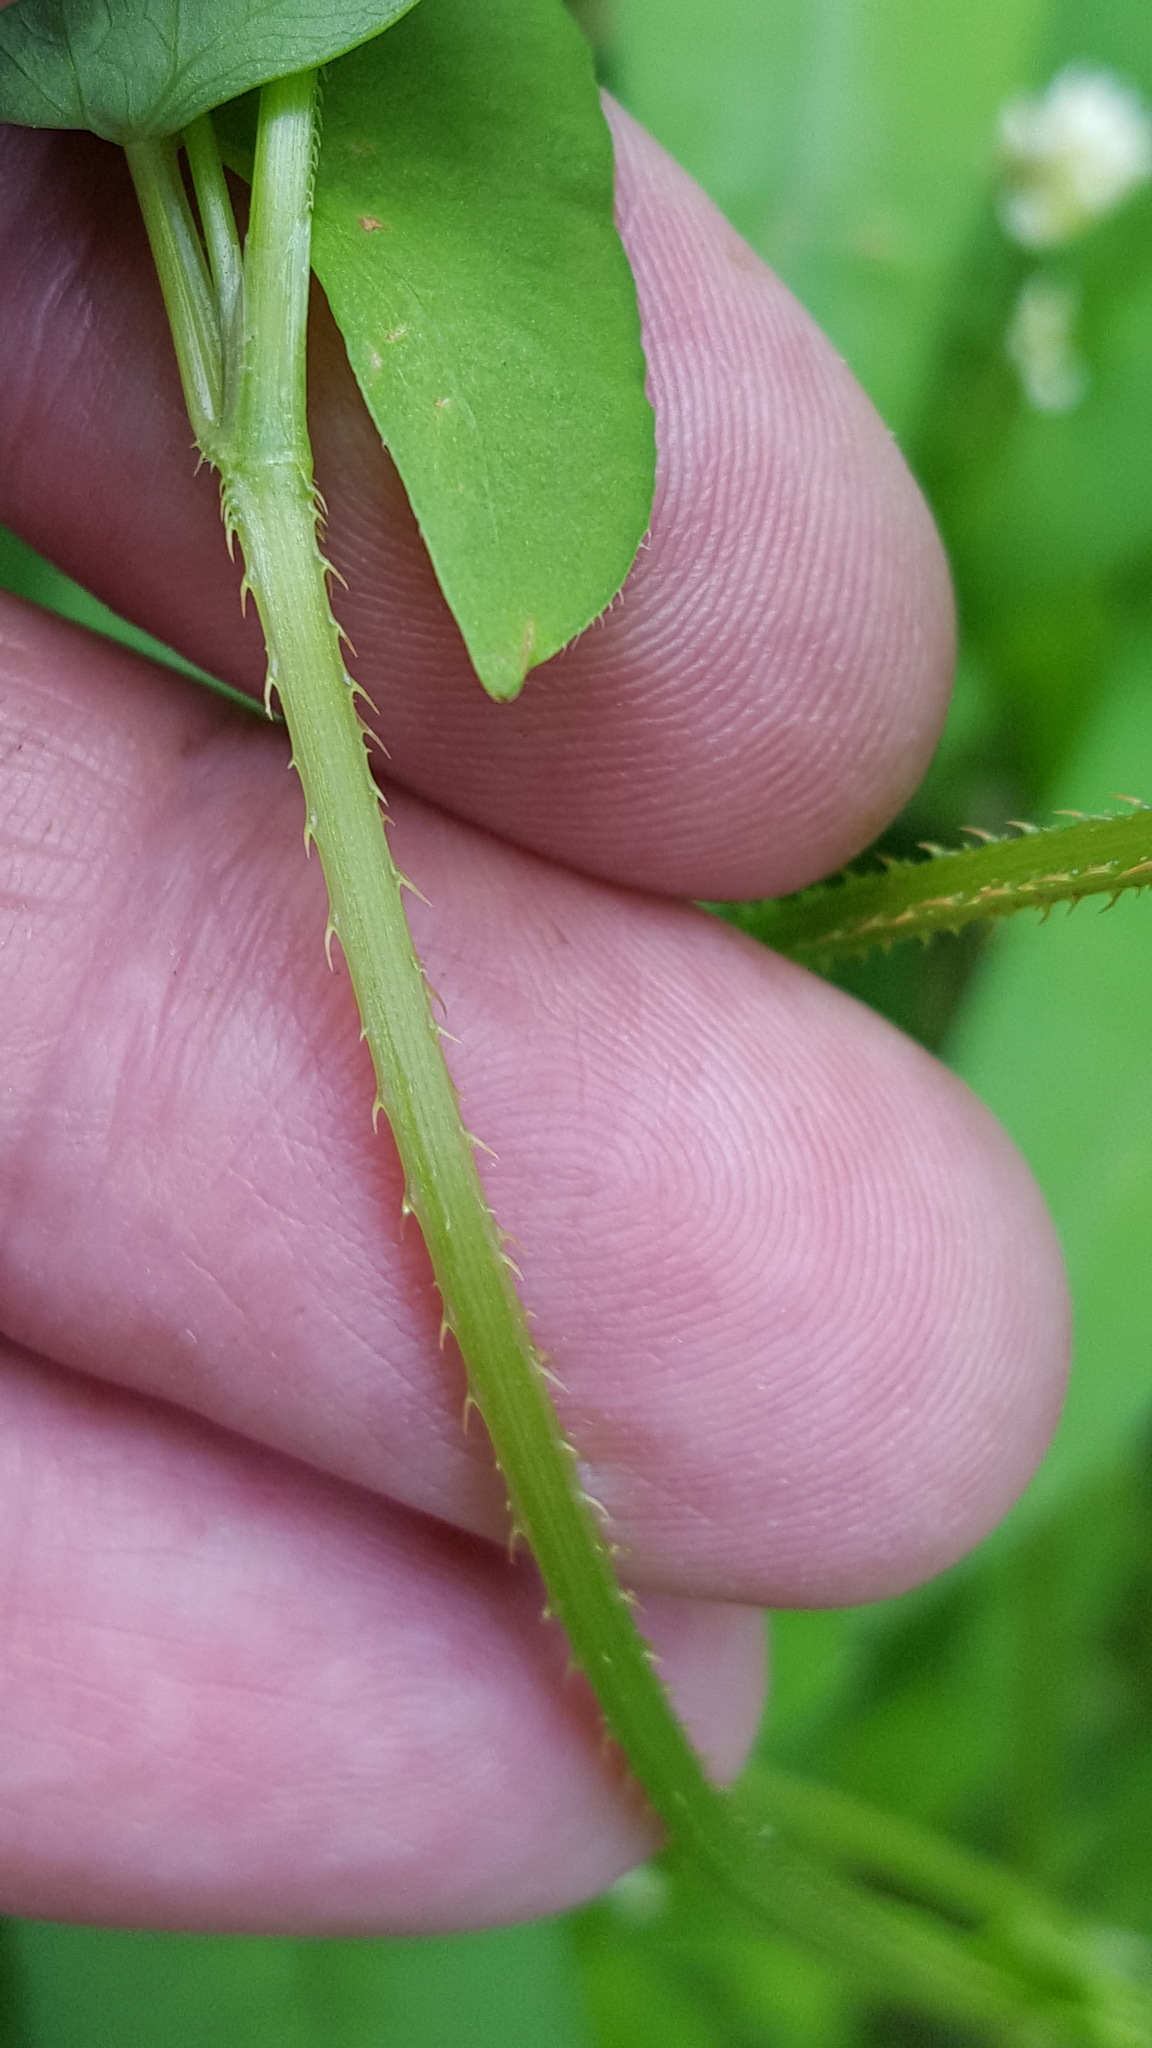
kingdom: Plantae
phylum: Tracheophyta
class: Magnoliopsida
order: Caryophyllales
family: Polygonaceae
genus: Persicaria
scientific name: Persicaria sagittata
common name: American tearthumb
